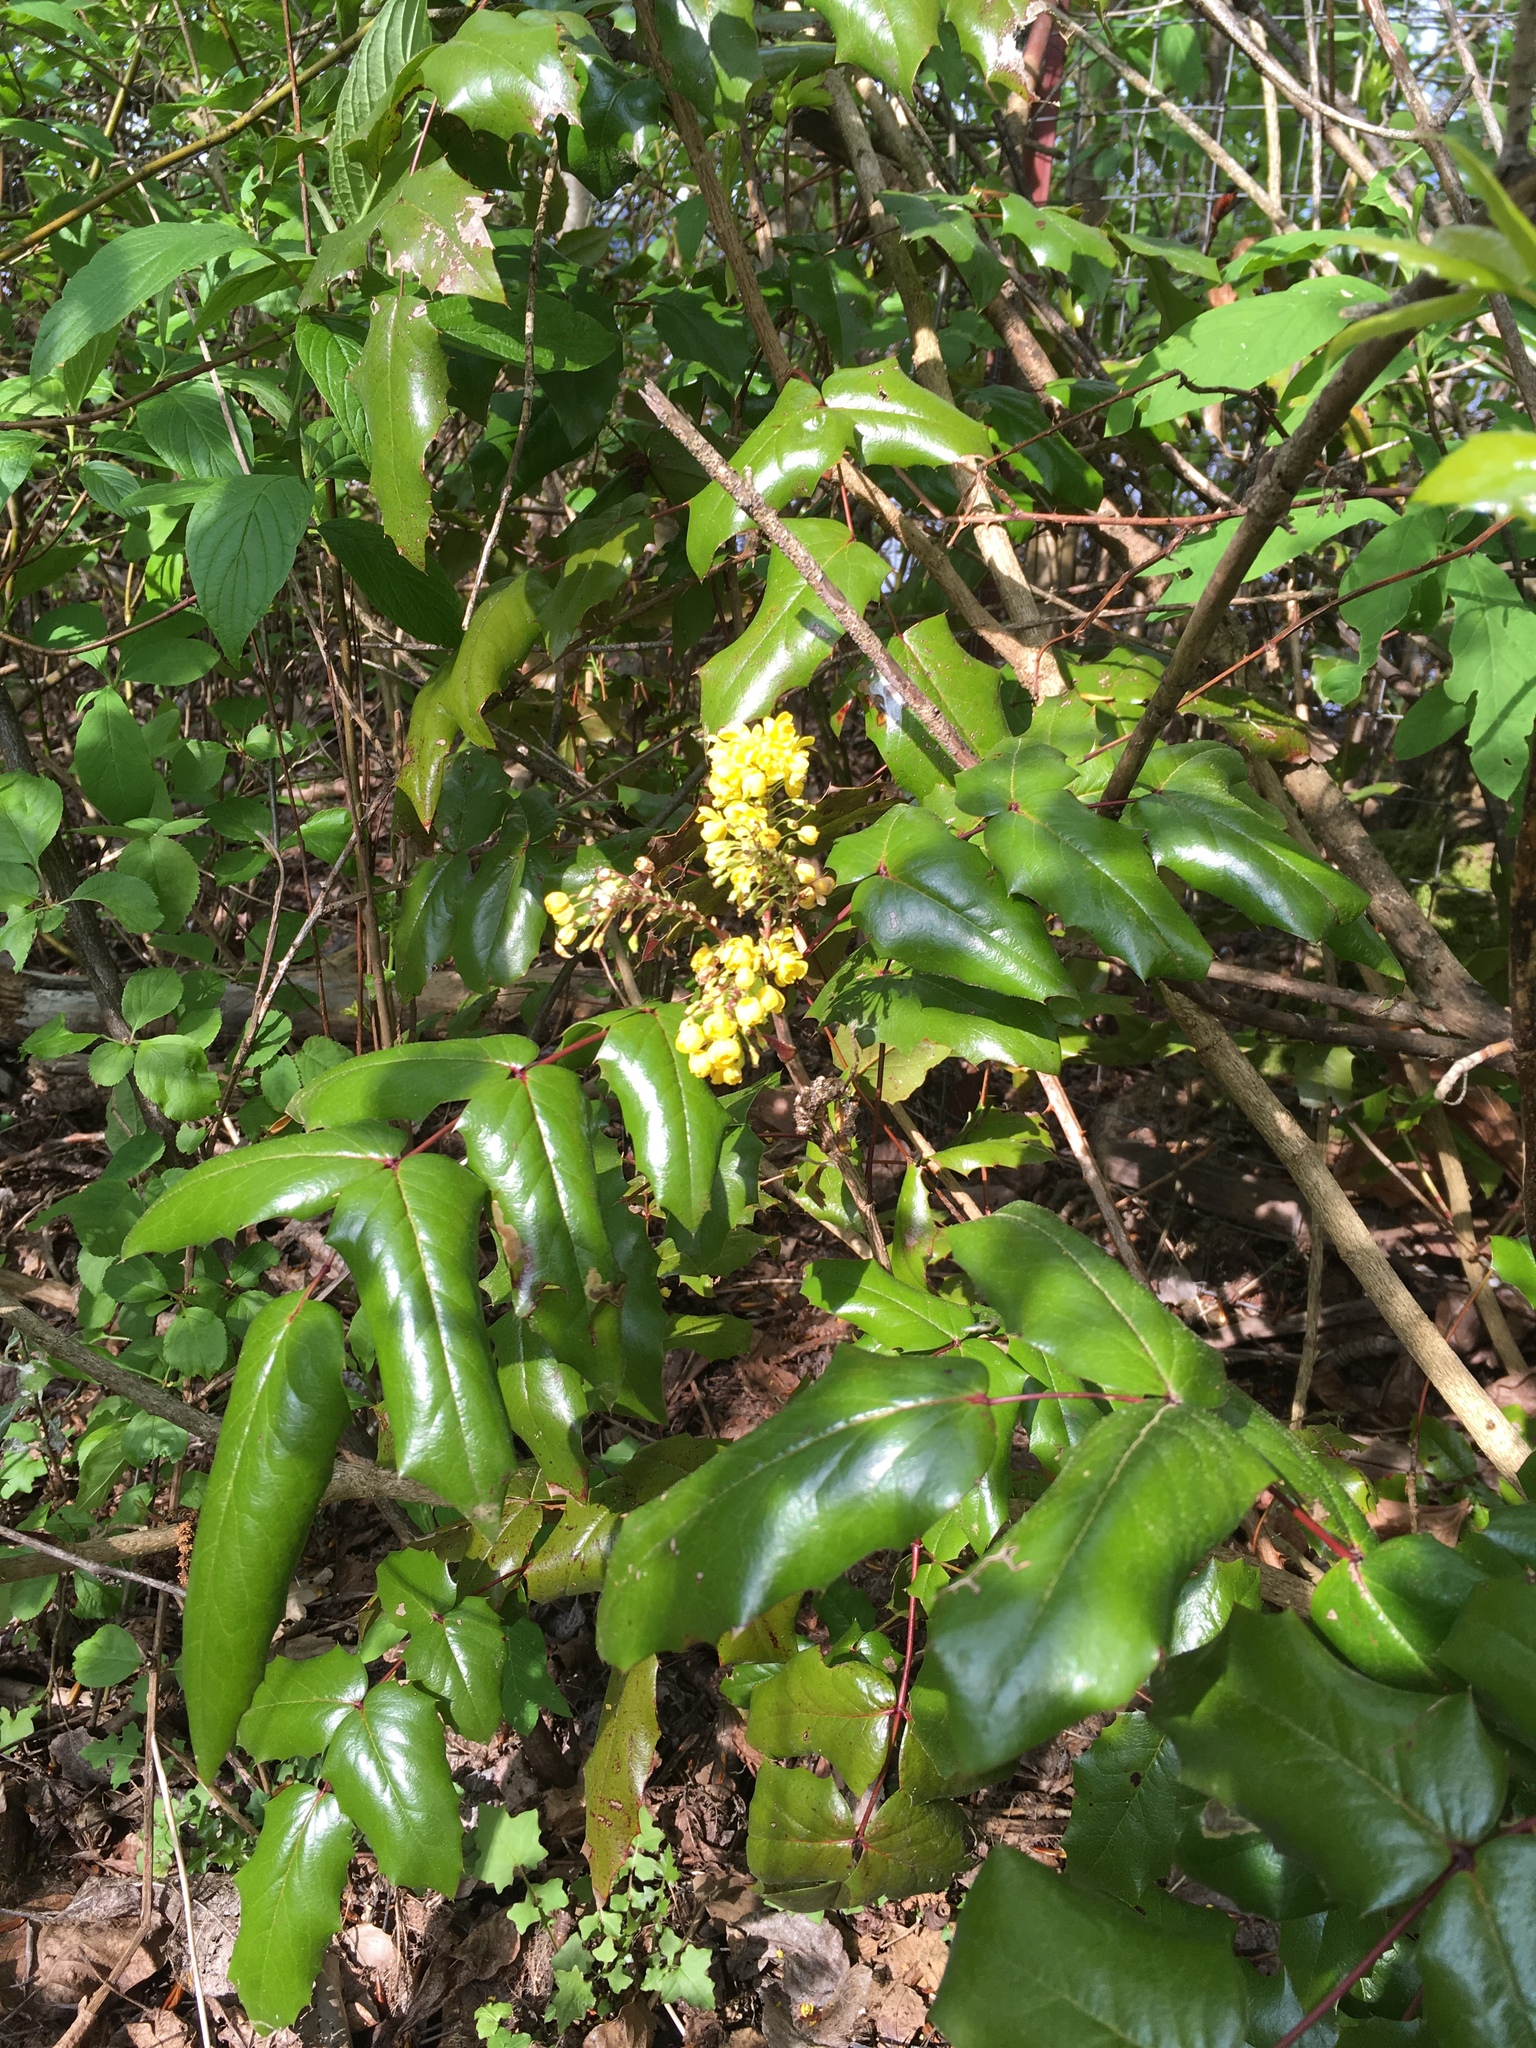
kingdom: Plantae
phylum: Tracheophyta
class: Magnoliopsida
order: Ranunculales
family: Berberidaceae
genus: Mahonia
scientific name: Mahonia aquifolium
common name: Oregon-grape
